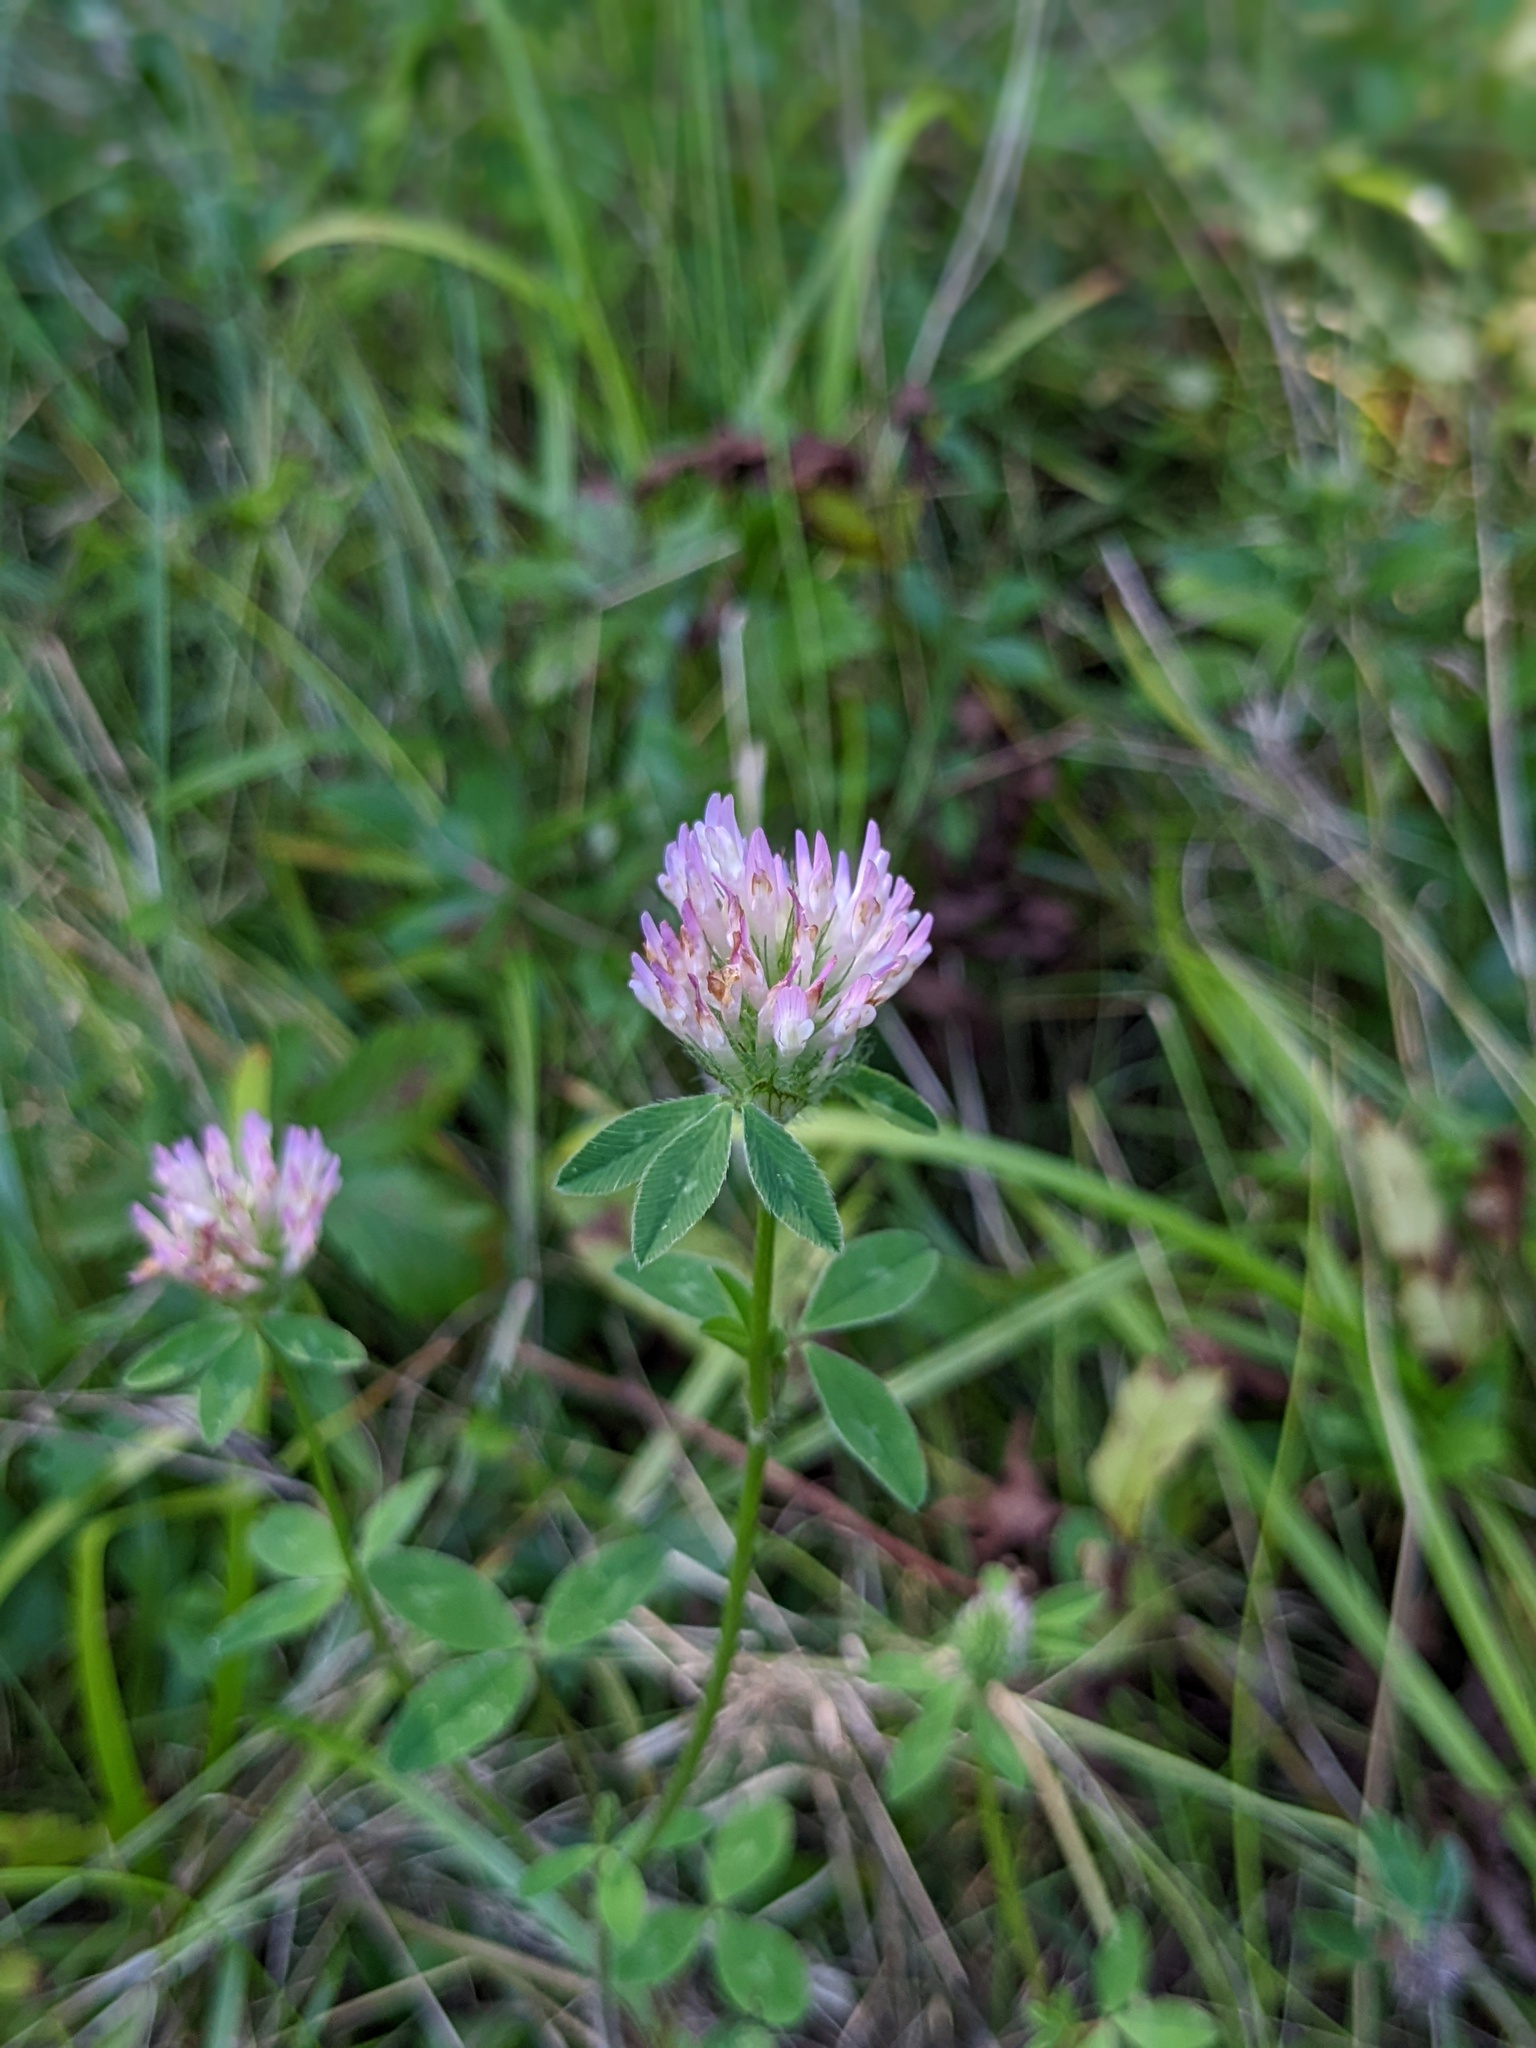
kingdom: Plantae
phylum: Tracheophyta
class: Magnoliopsida
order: Fabales
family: Fabaceae
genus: Trifolium
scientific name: Trifolium pratense
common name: Red clover
